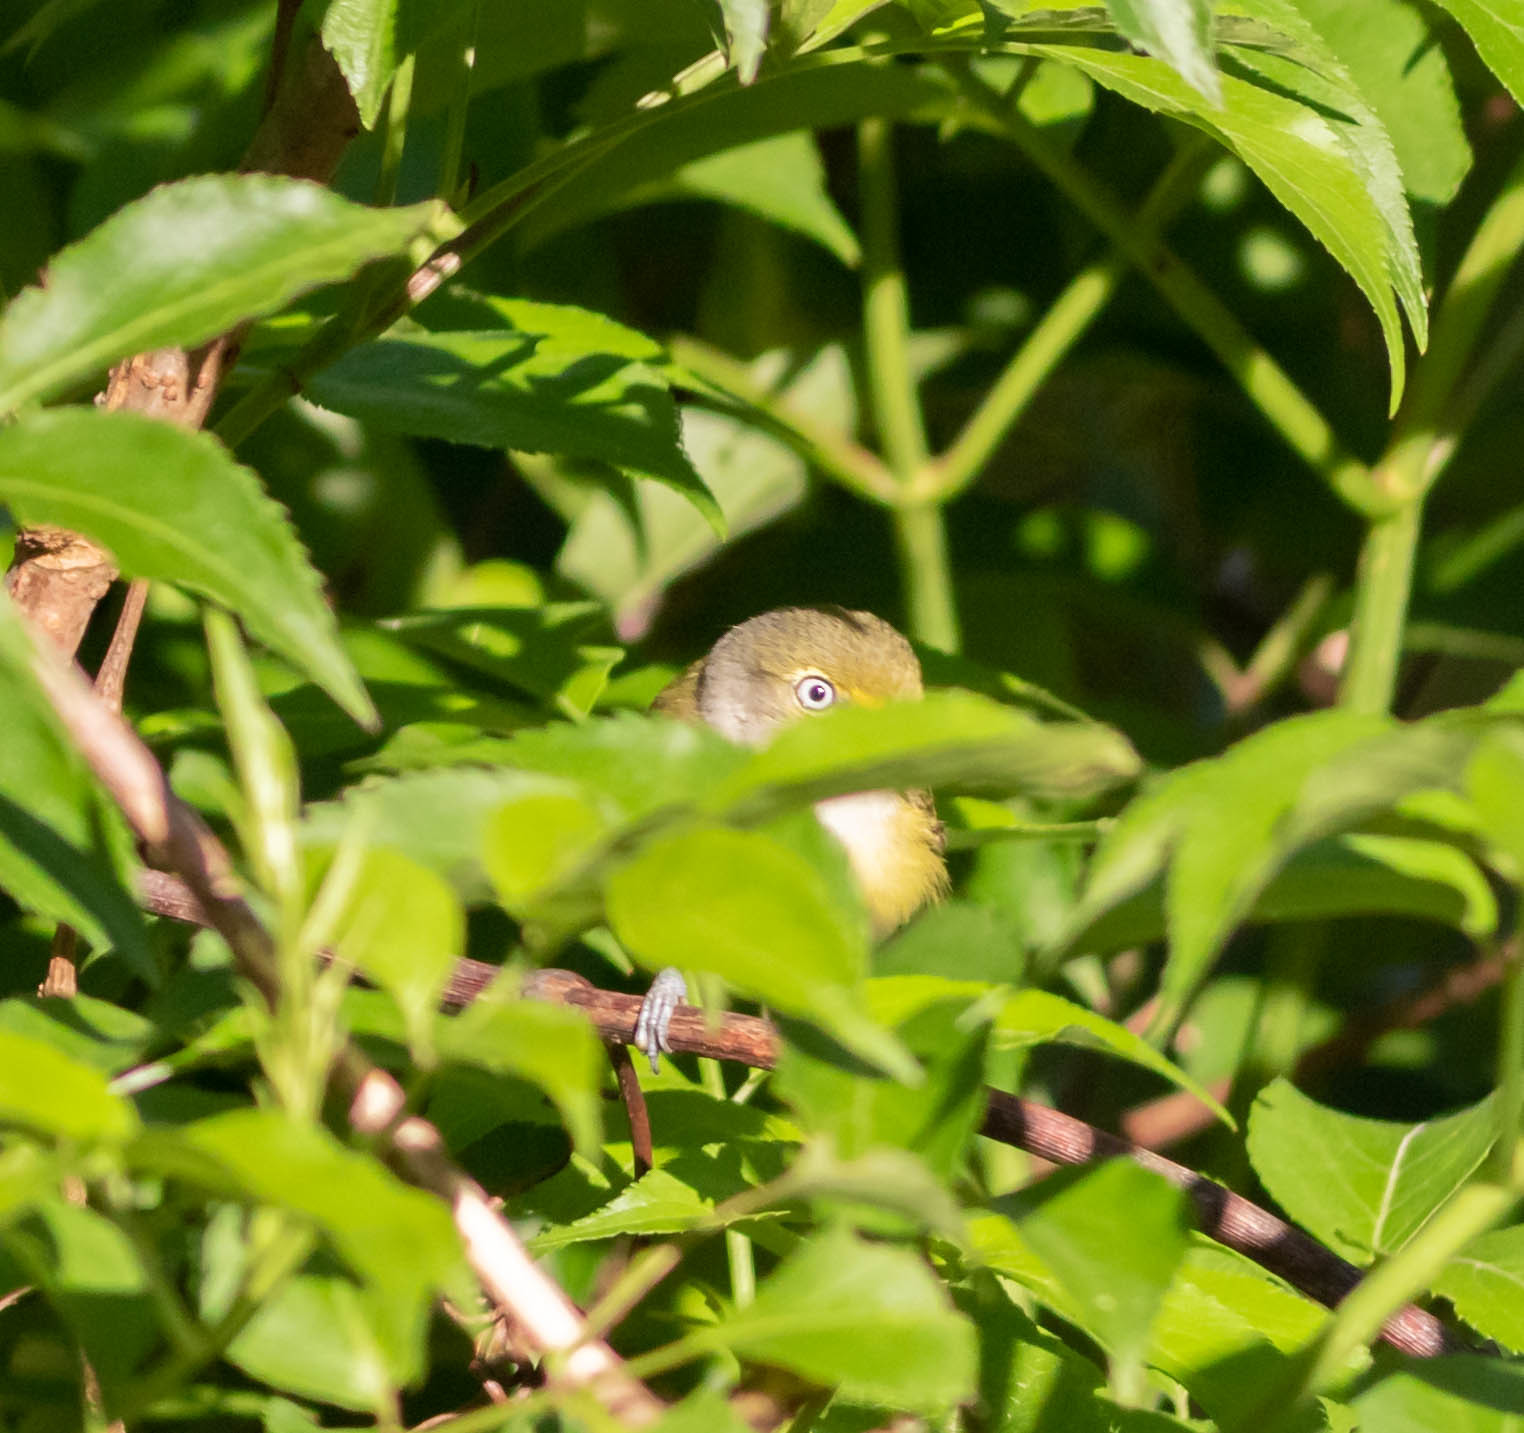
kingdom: Animalia
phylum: Chordata
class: Aves
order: Passeriformes
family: Vireonidae
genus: Vireo
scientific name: Vireo griseus
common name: White-eyed vireo
